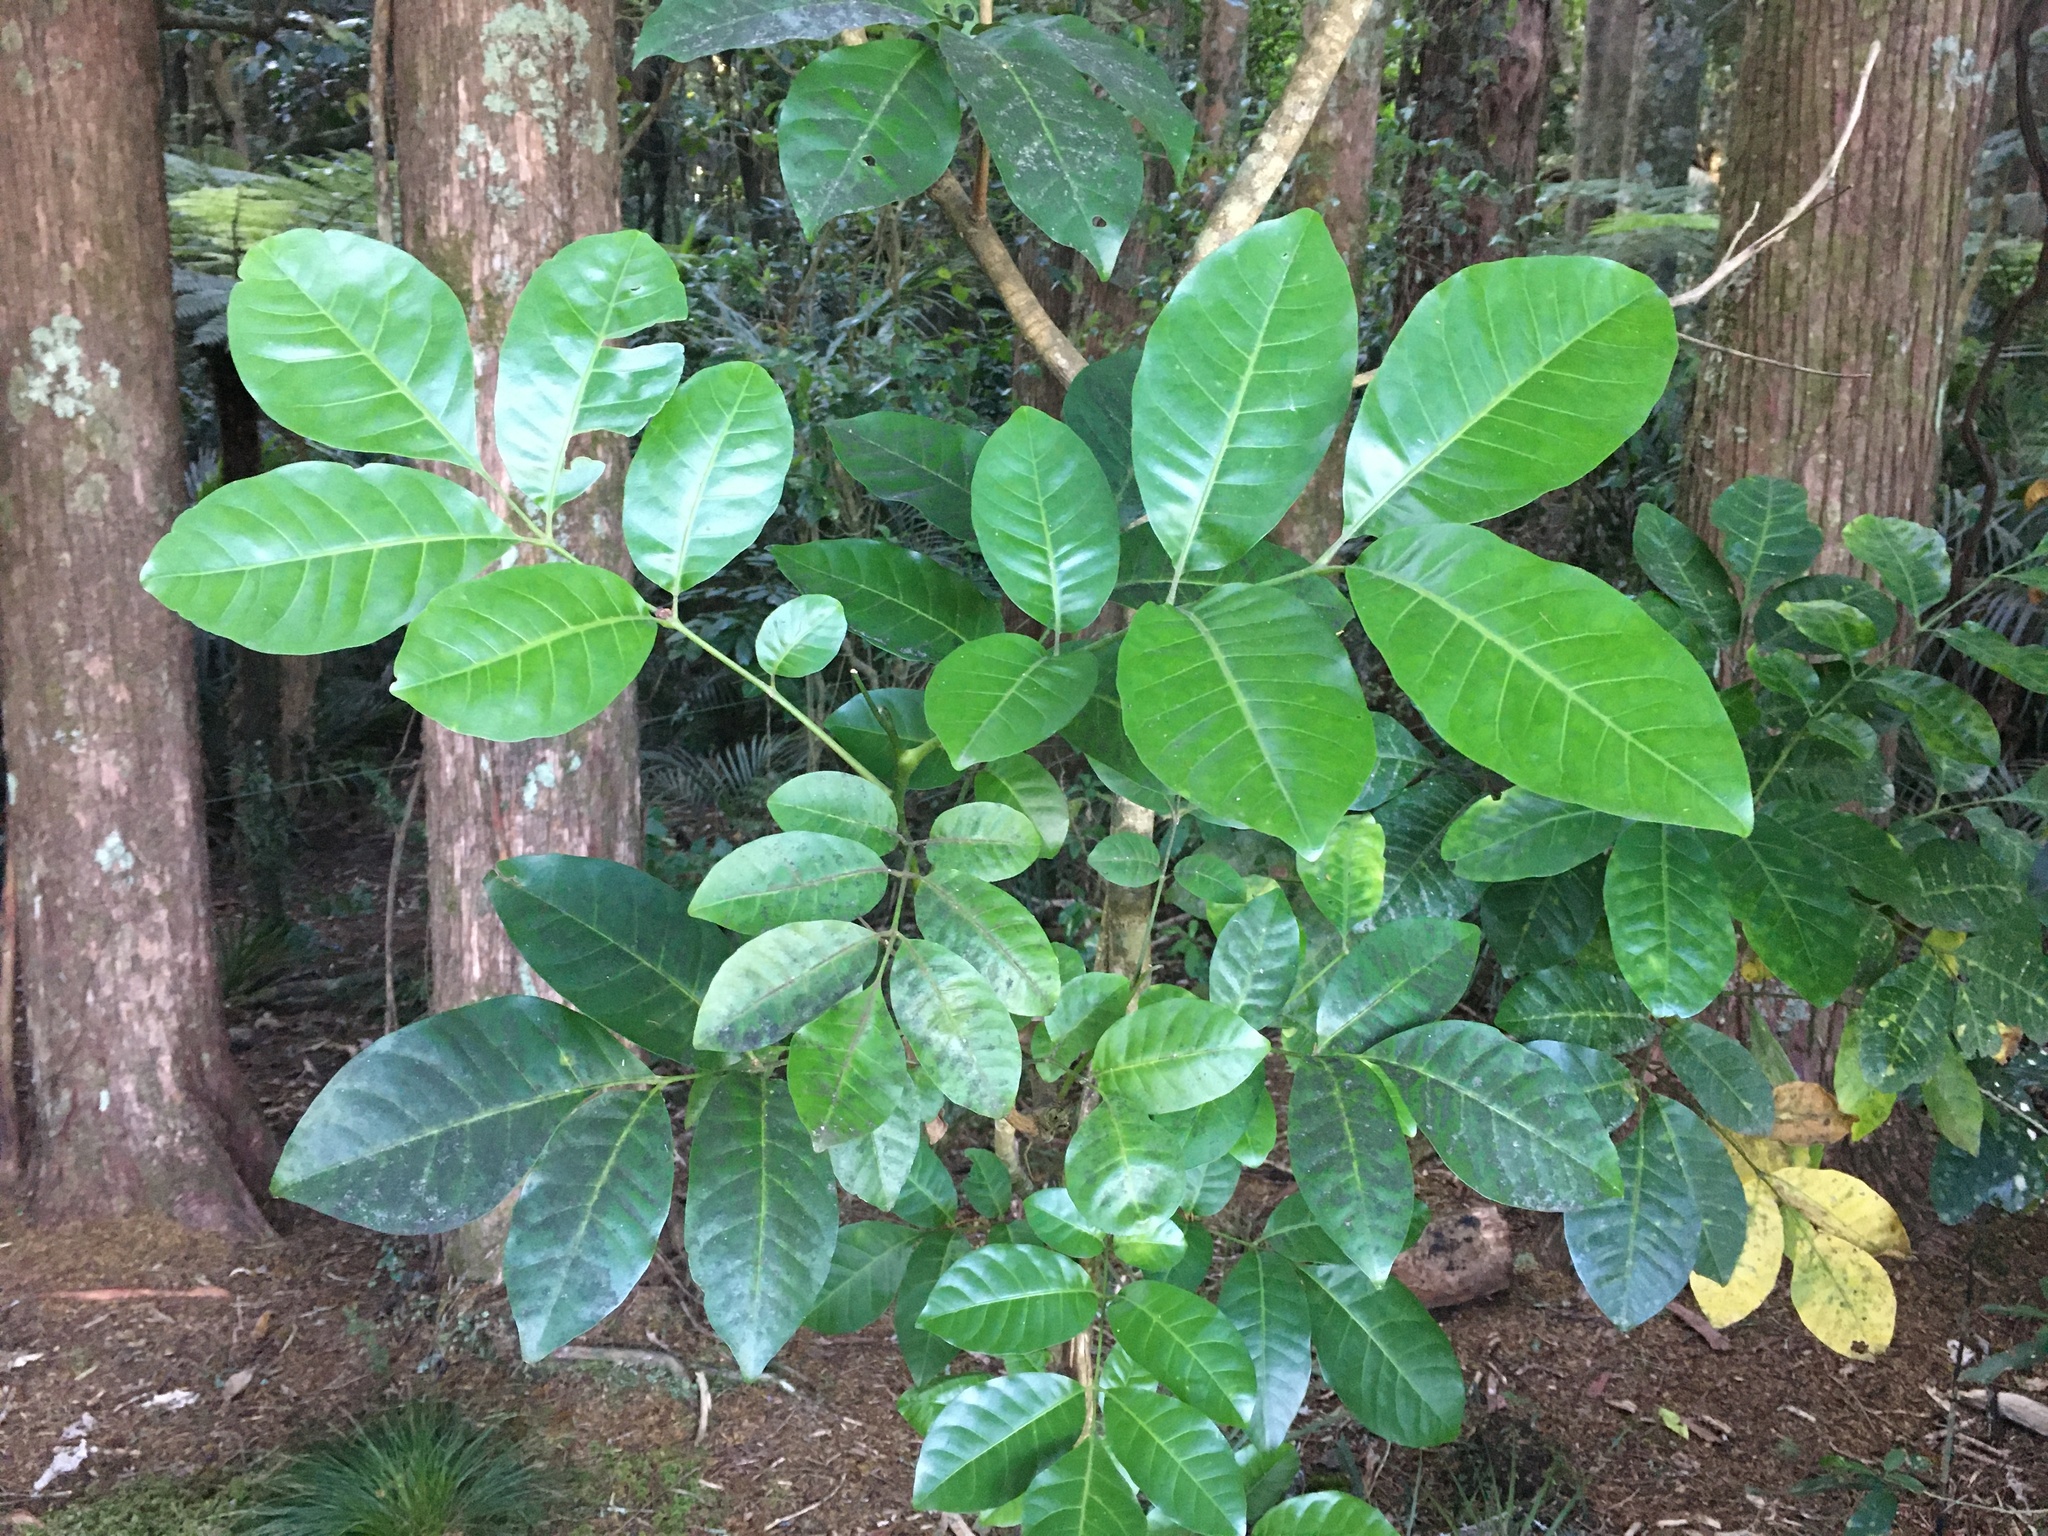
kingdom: Plantae
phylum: Tracheophyta
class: Magnoliopsida
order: Sapindales
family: Meliaceae
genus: Didymocheton
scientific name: Didymocheton spectabilis
